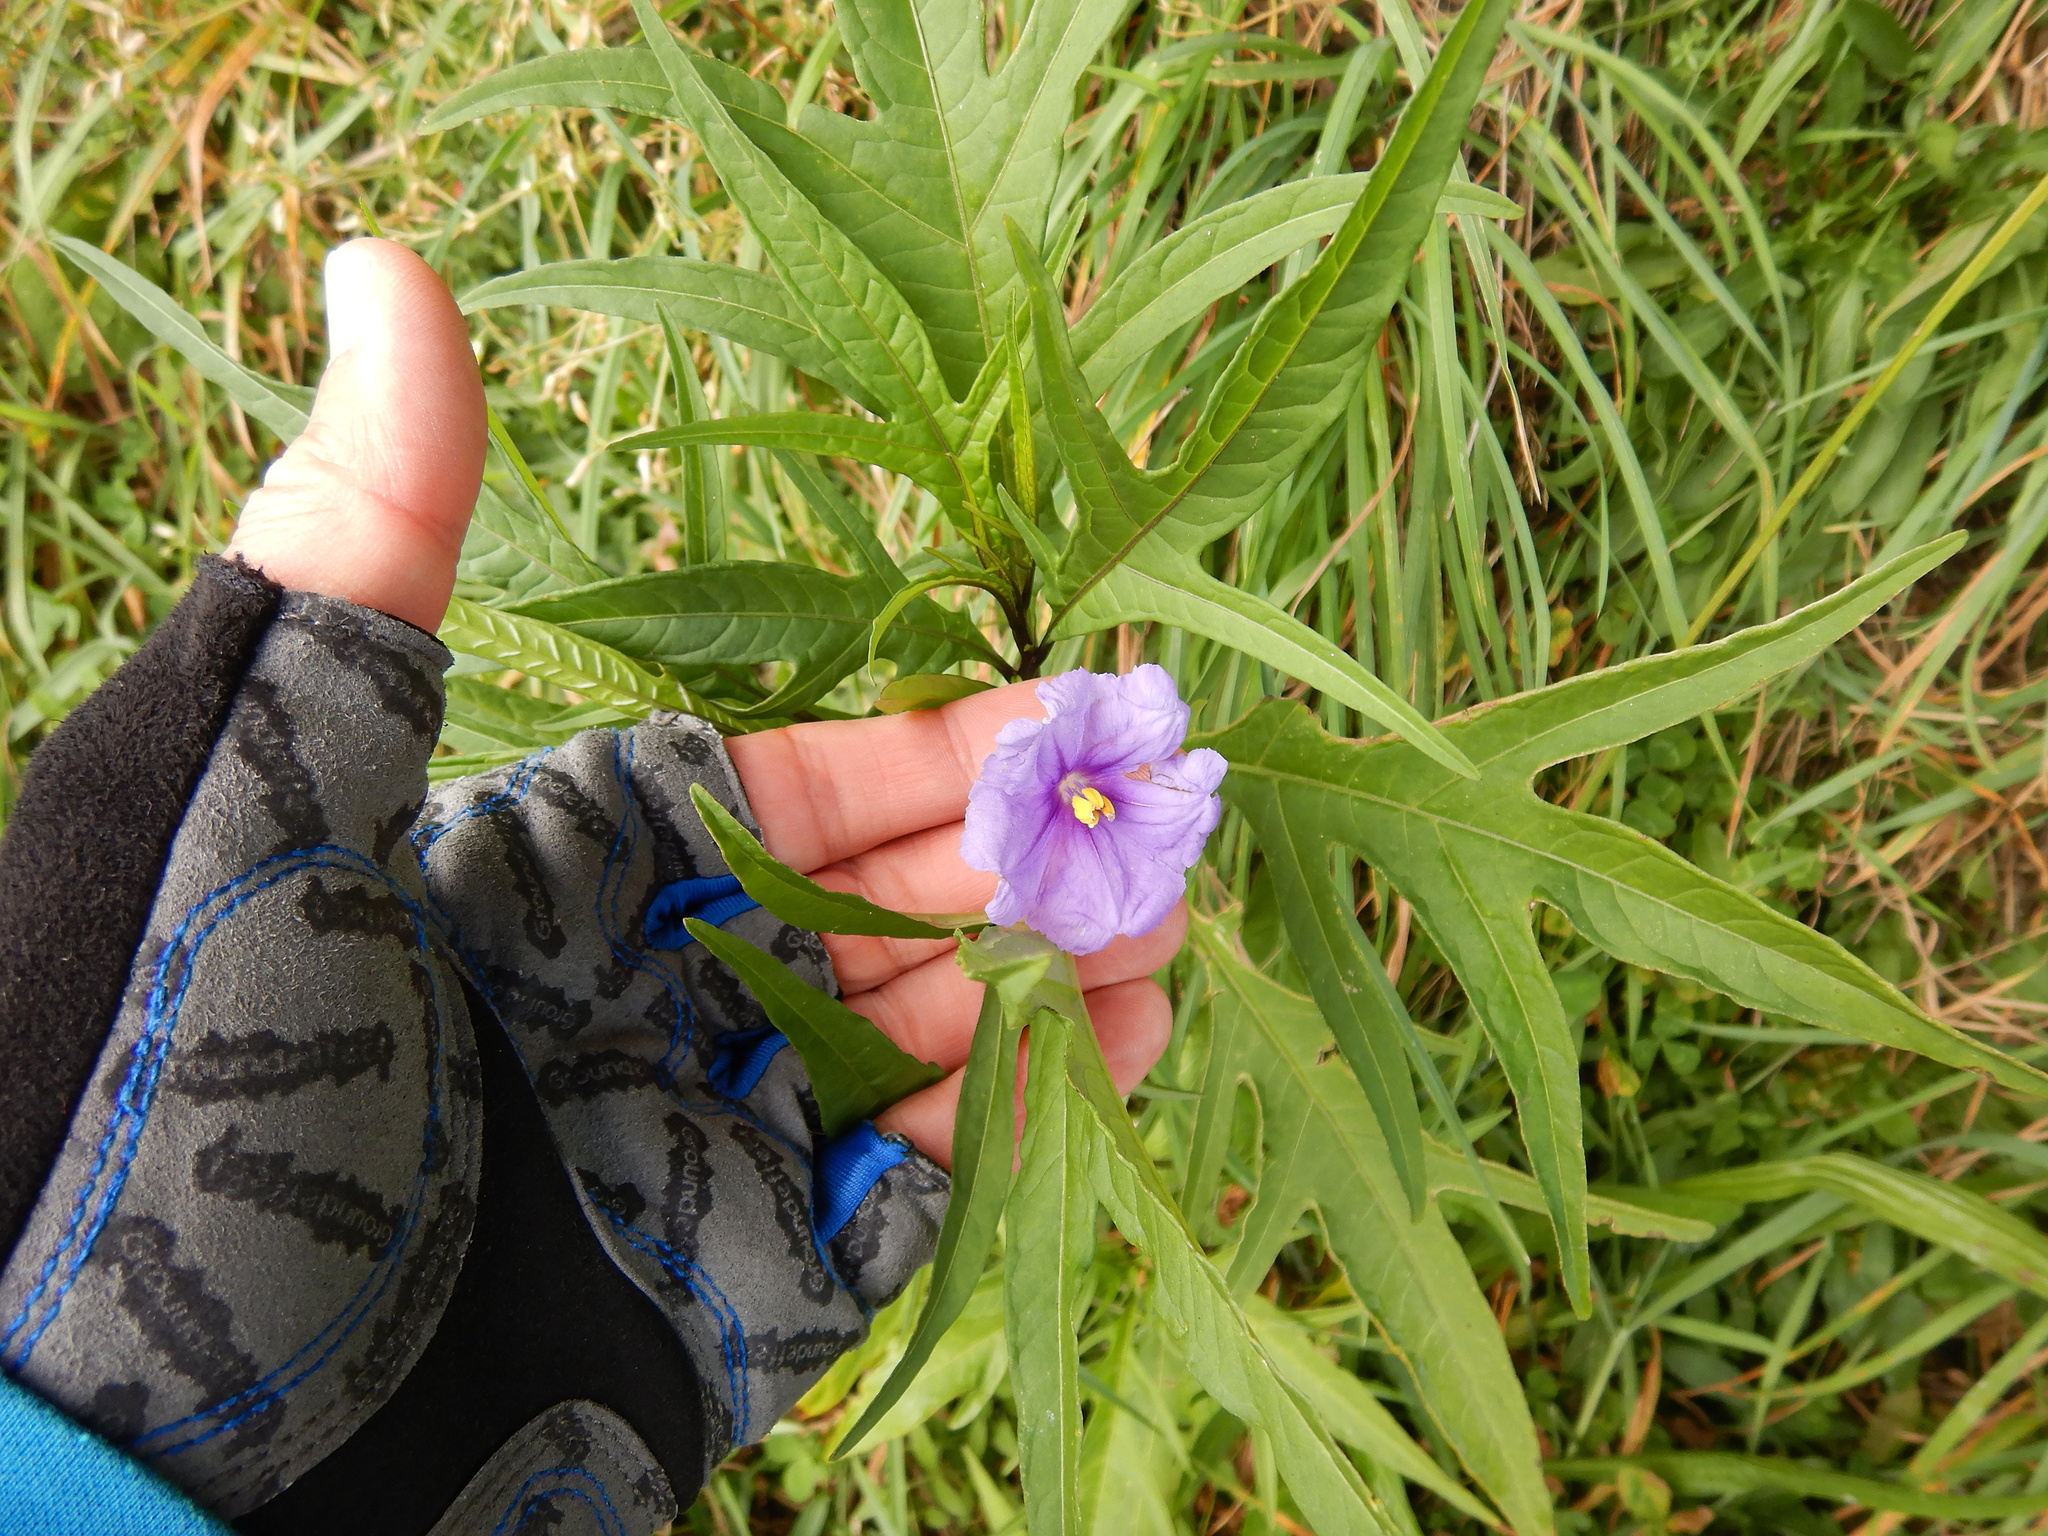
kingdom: Plantae
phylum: Tracheophyta
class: Magnoliopsida
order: Solanales
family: Solanaceae
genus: Solanum
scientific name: Solanum laciniatum
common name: Kangaroo-apple
